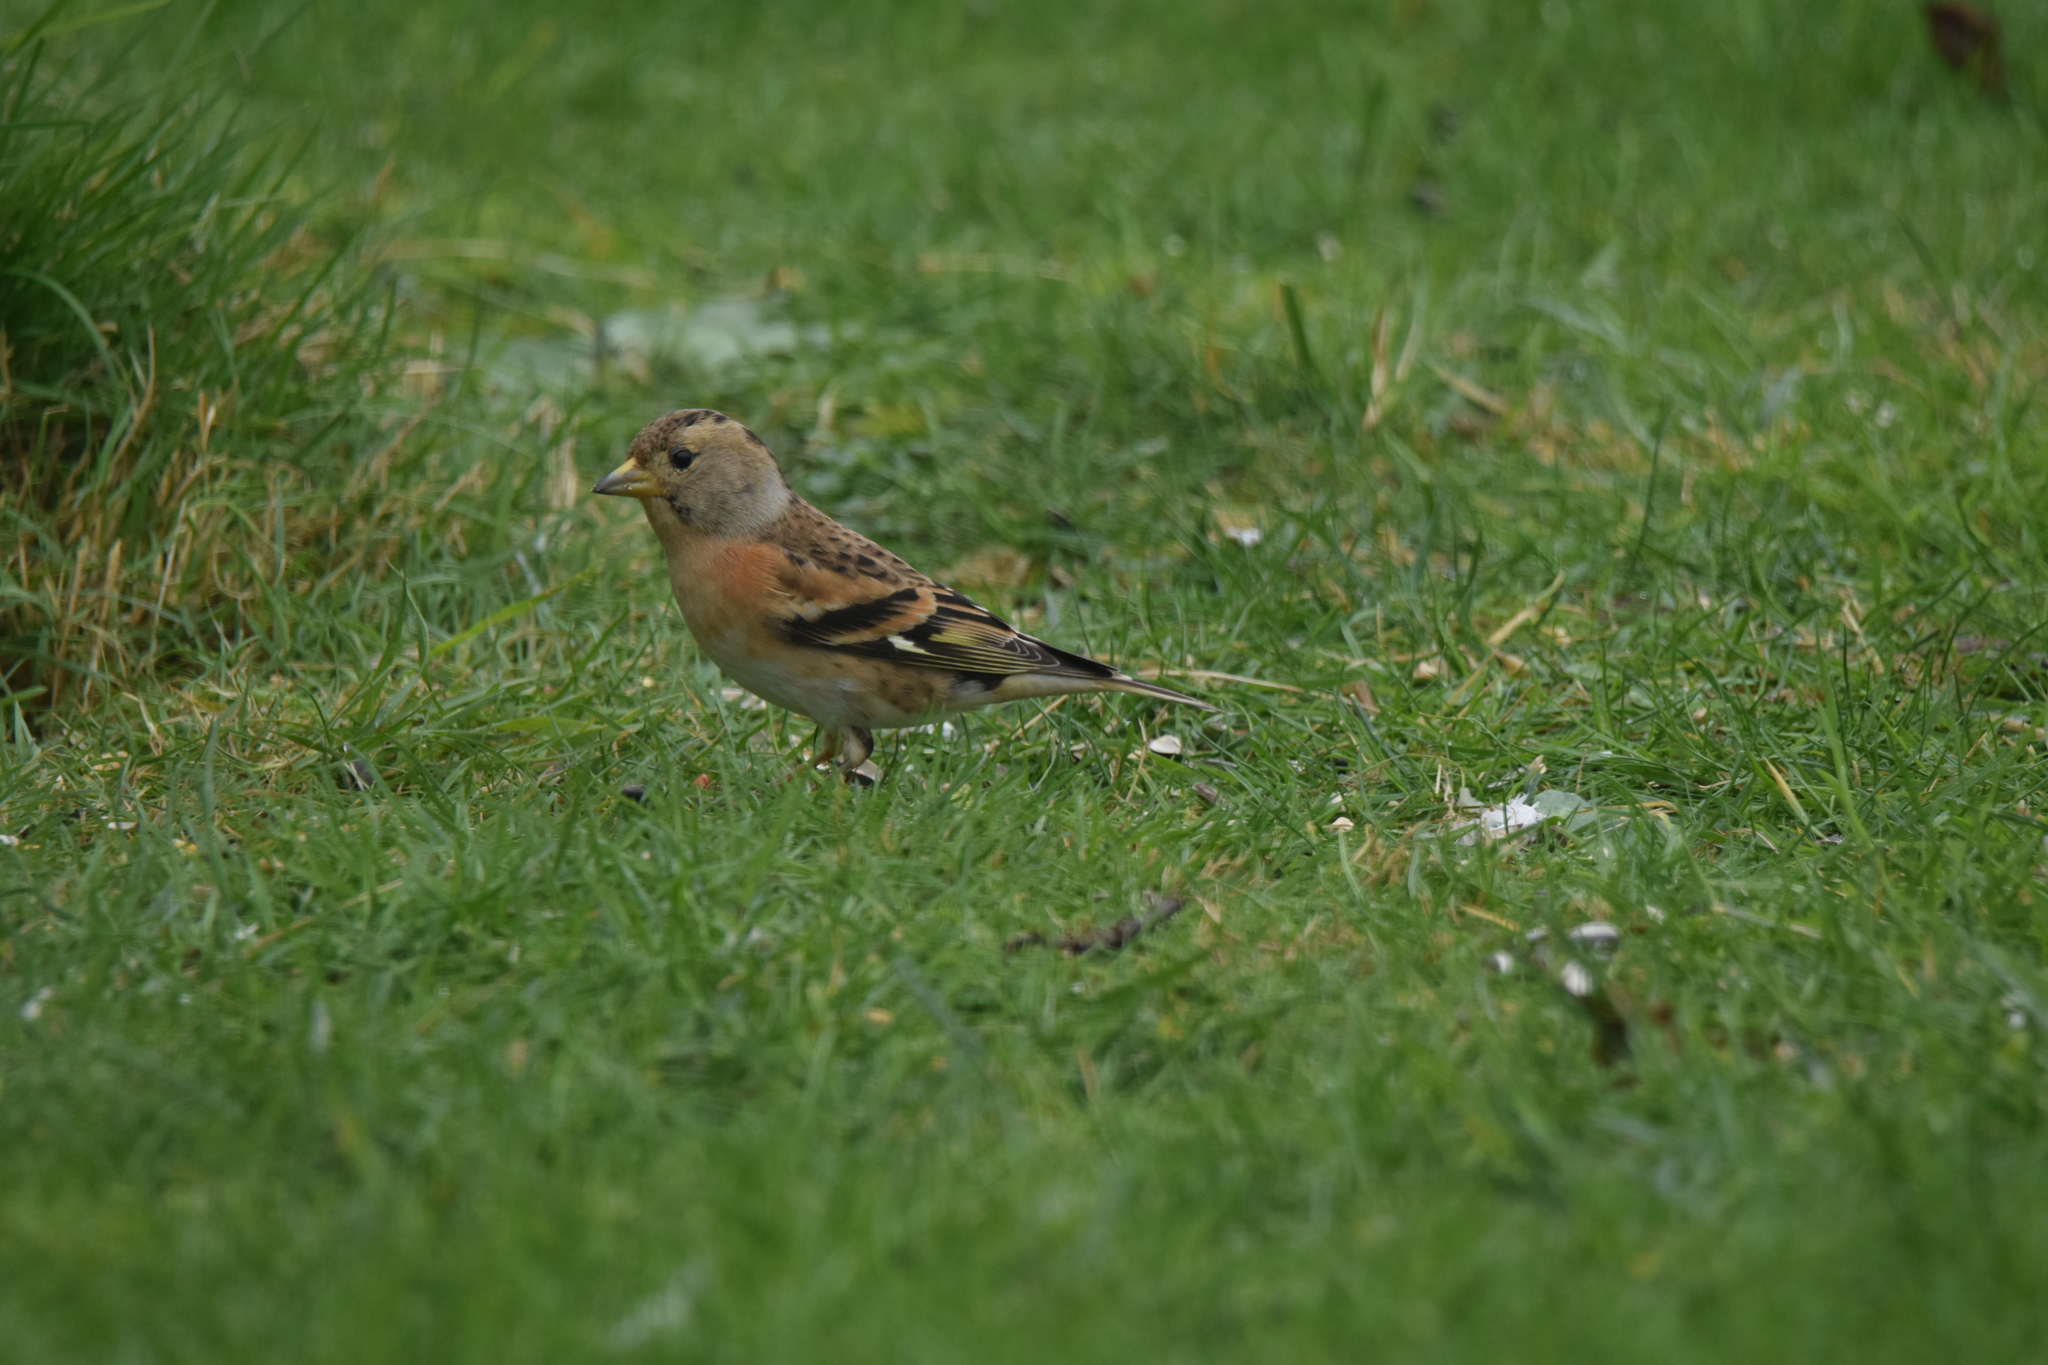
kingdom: Animalia
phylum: Chordata
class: Aves
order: Passeriformes
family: Fringillidae
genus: Fringilla
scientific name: Fringilla montifringilla
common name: Brambling
